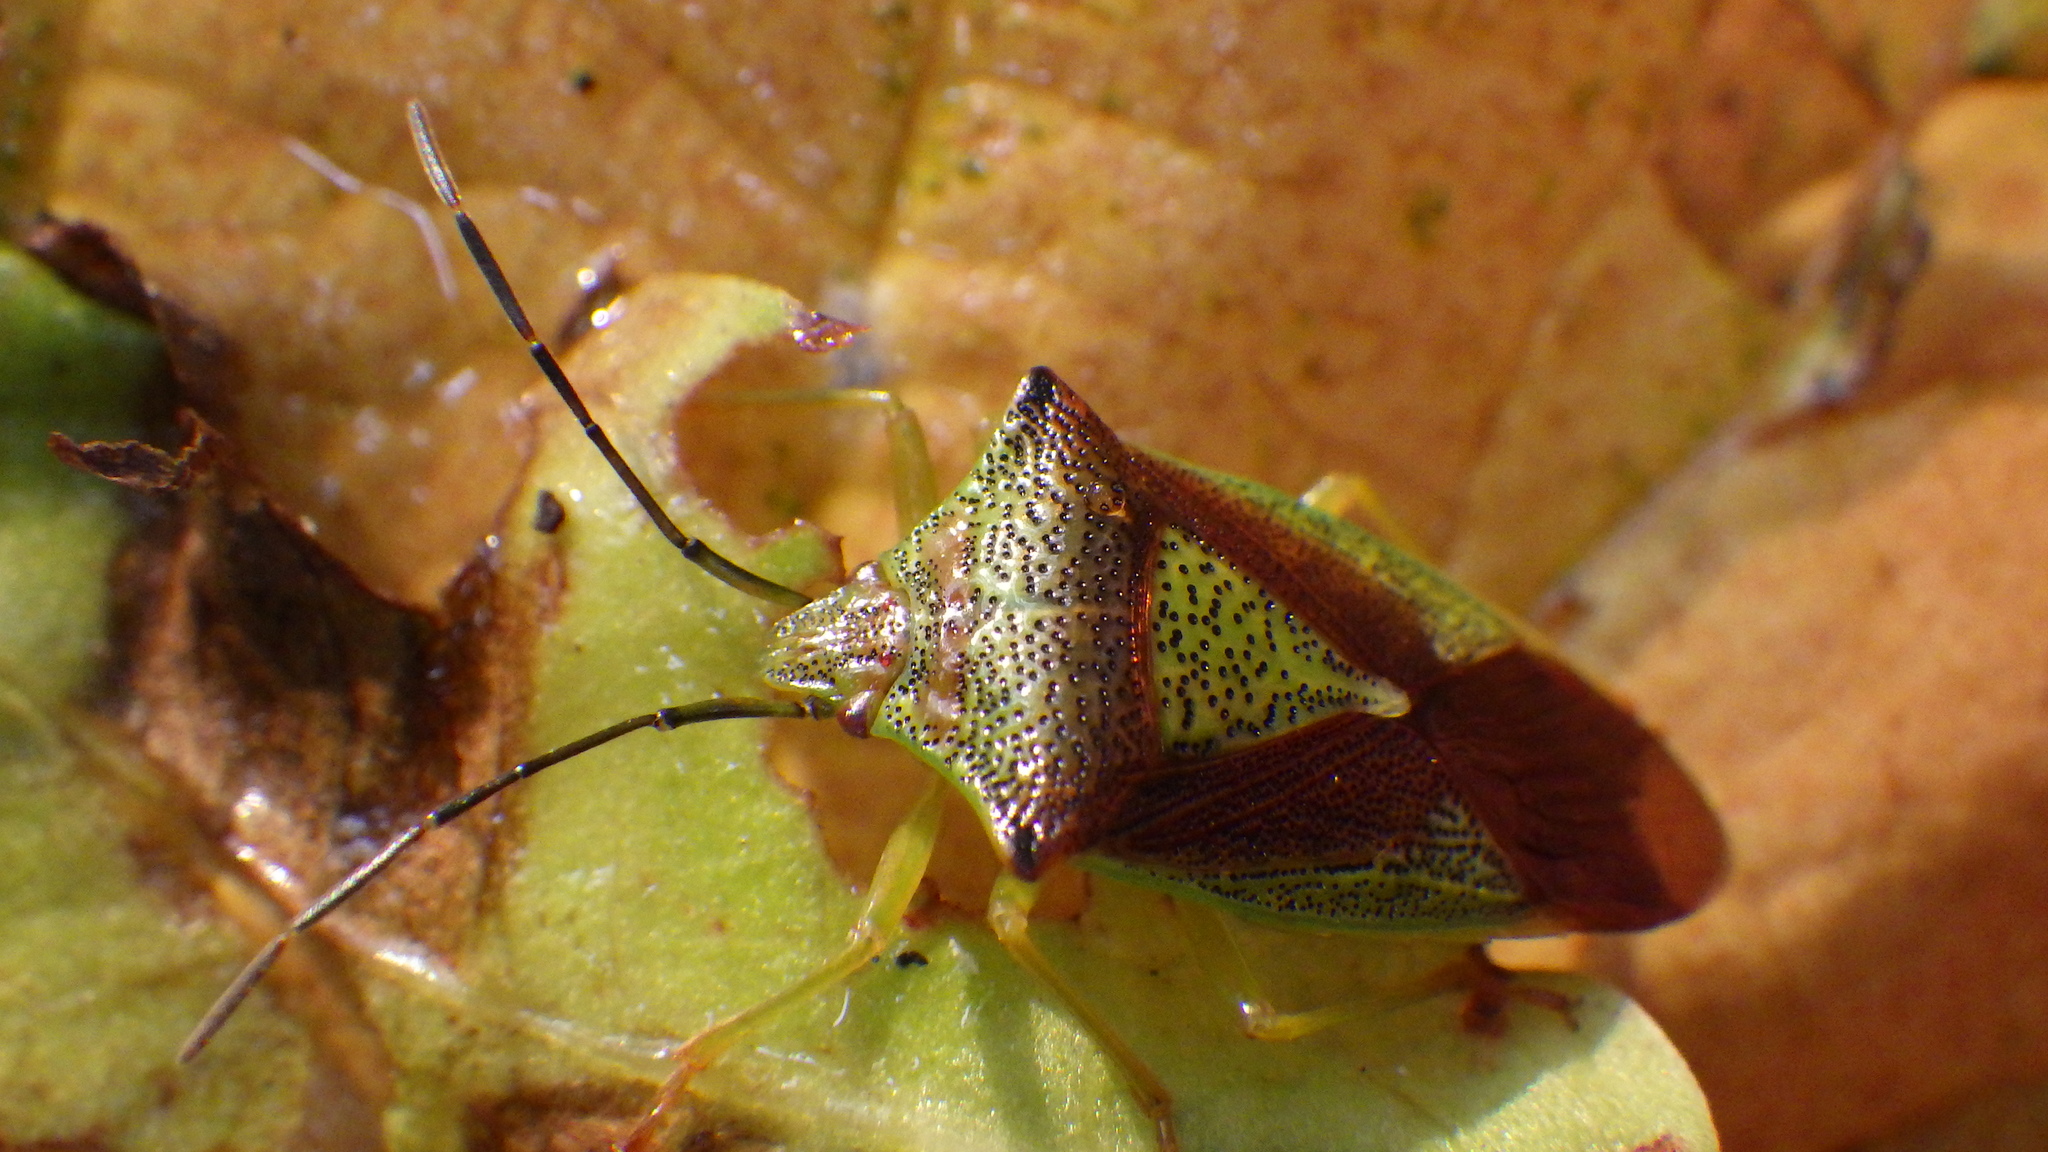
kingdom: Animalia
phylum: Arthropoda
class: Insecta
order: Hemiptera
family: Acanthosomatidae
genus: Acanthosoma
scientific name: Acanthosoma haemorrhoidale
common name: Hawthorn shieldbug
